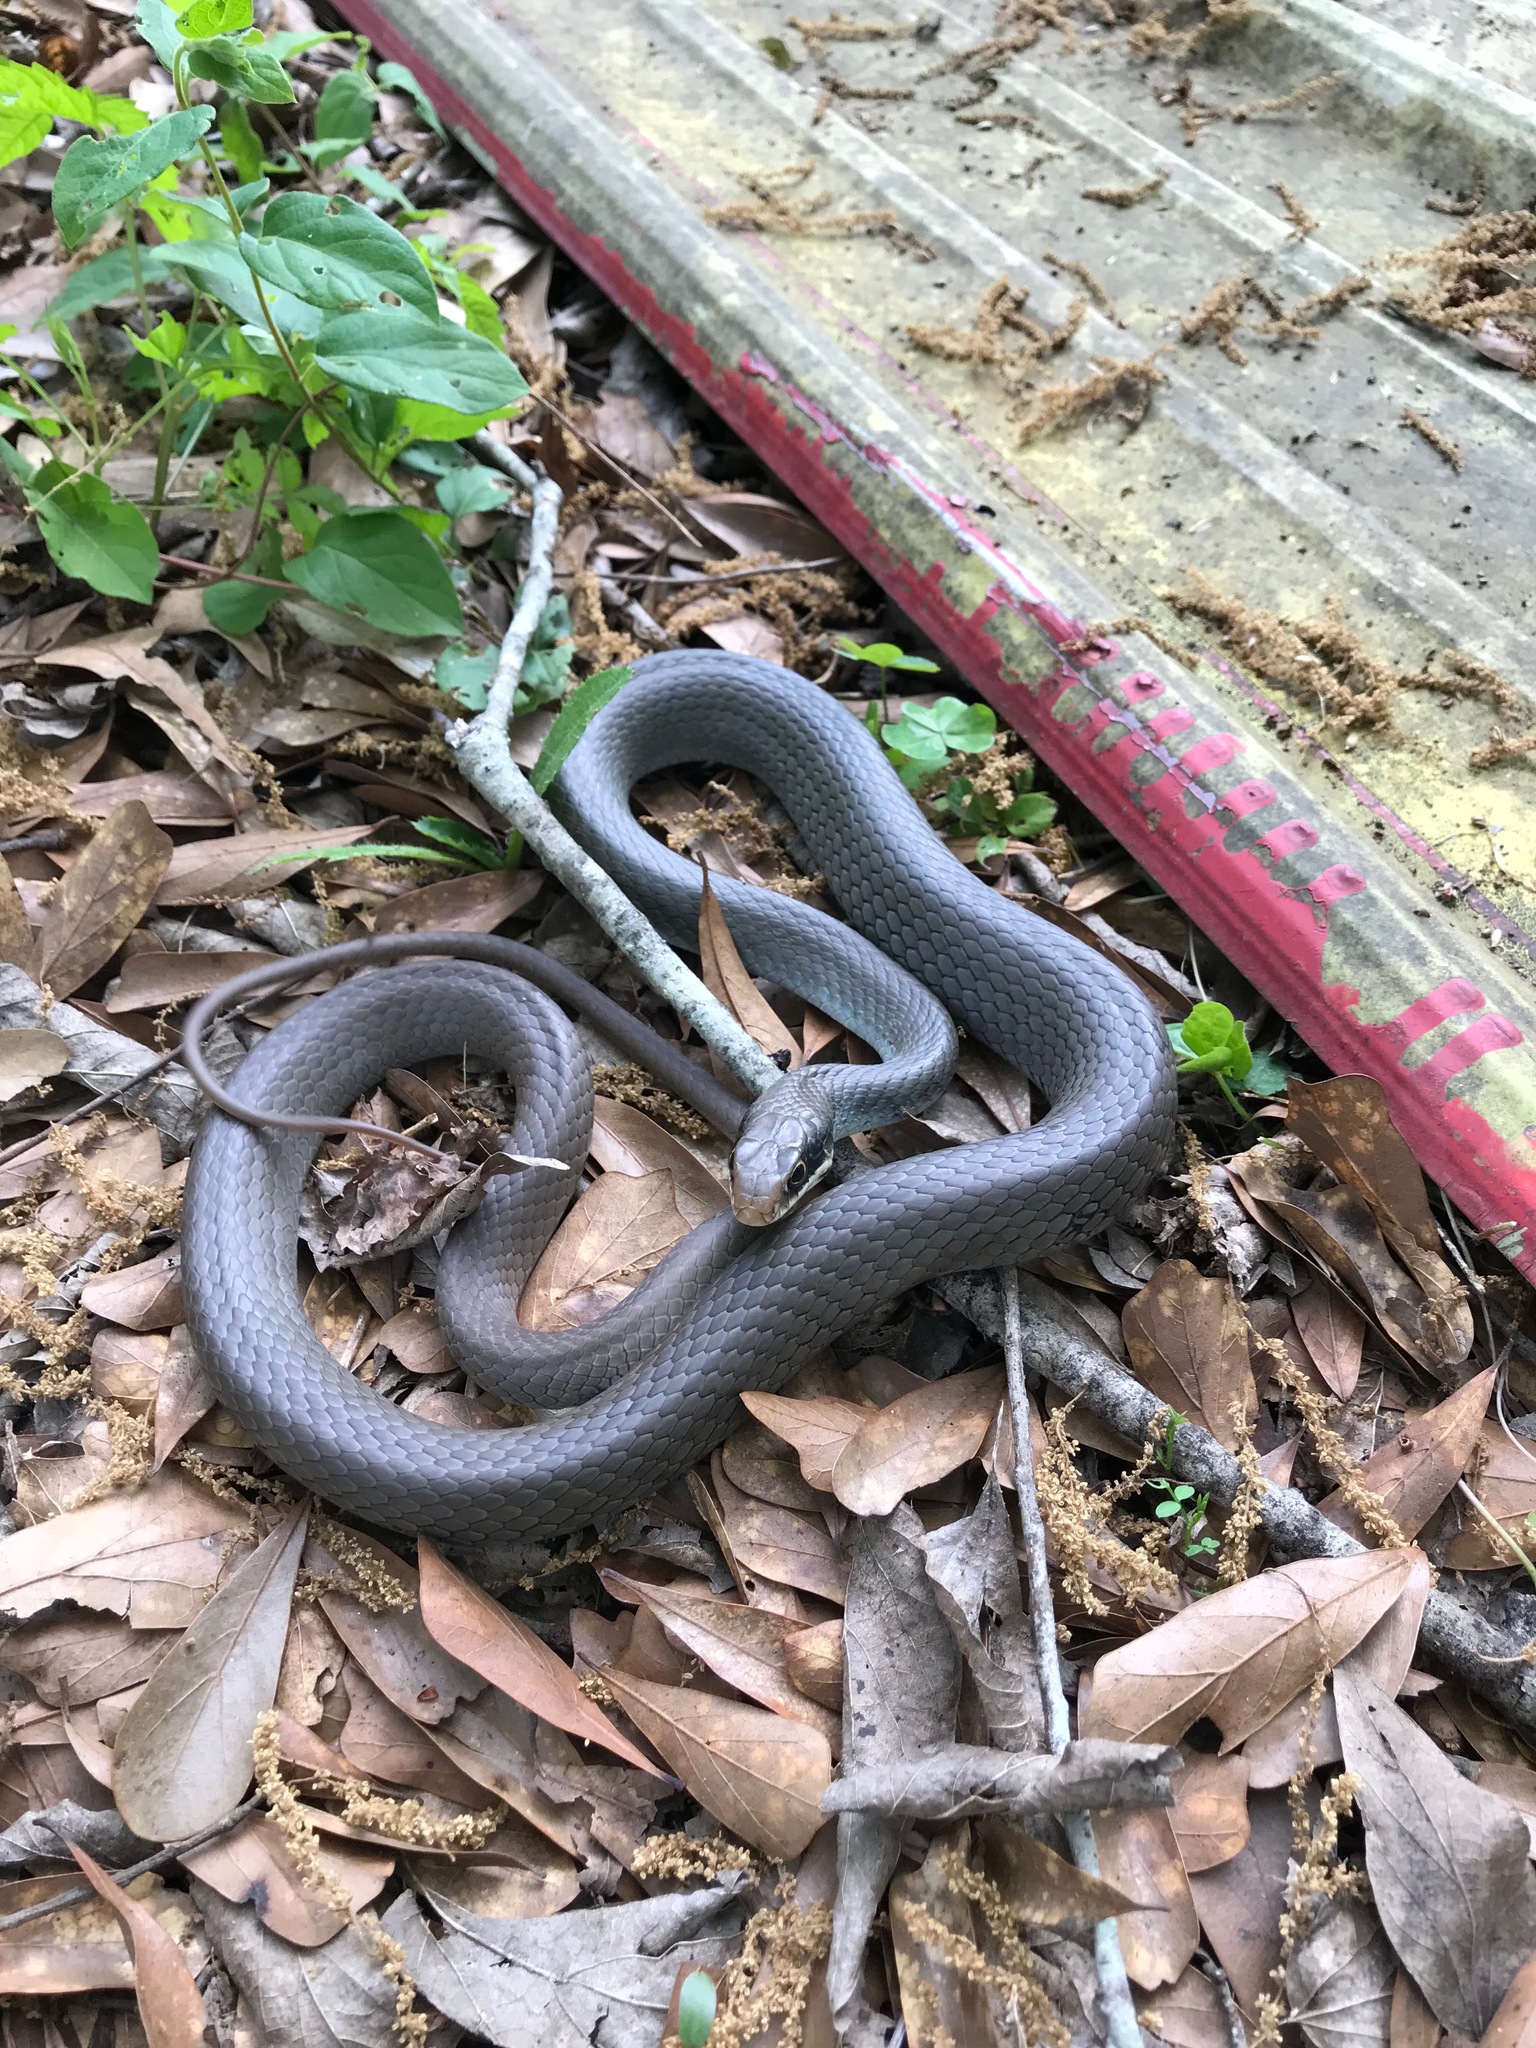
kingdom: Animalia
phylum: Chordata
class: Squamata
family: Colubridae
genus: Coluber
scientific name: Coluber constrictor
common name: Eastern racer
